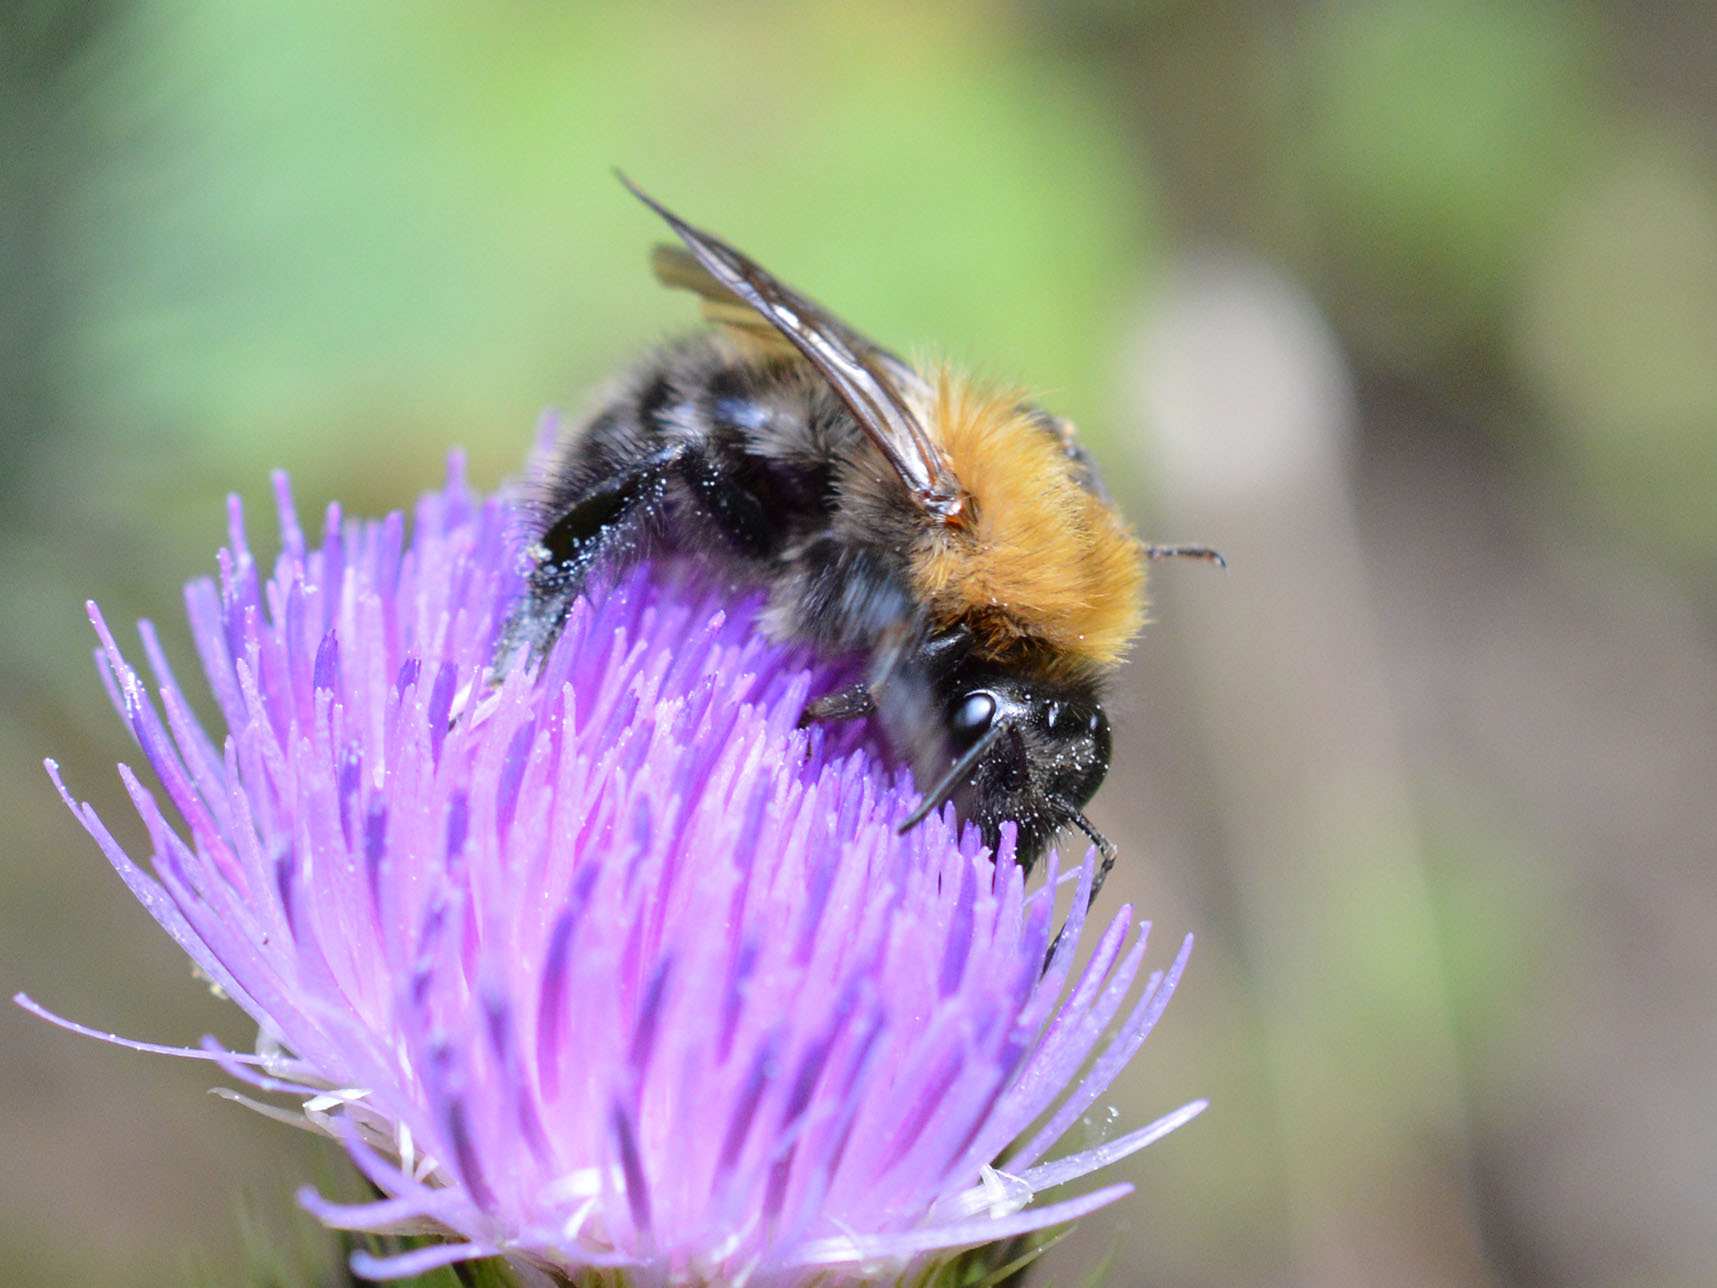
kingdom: Animalia
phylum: Arthropoda
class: Insecta
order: Hymenoptera
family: Apidae
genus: Bombus
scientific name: Bombus pascuorum
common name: Common carder bee
